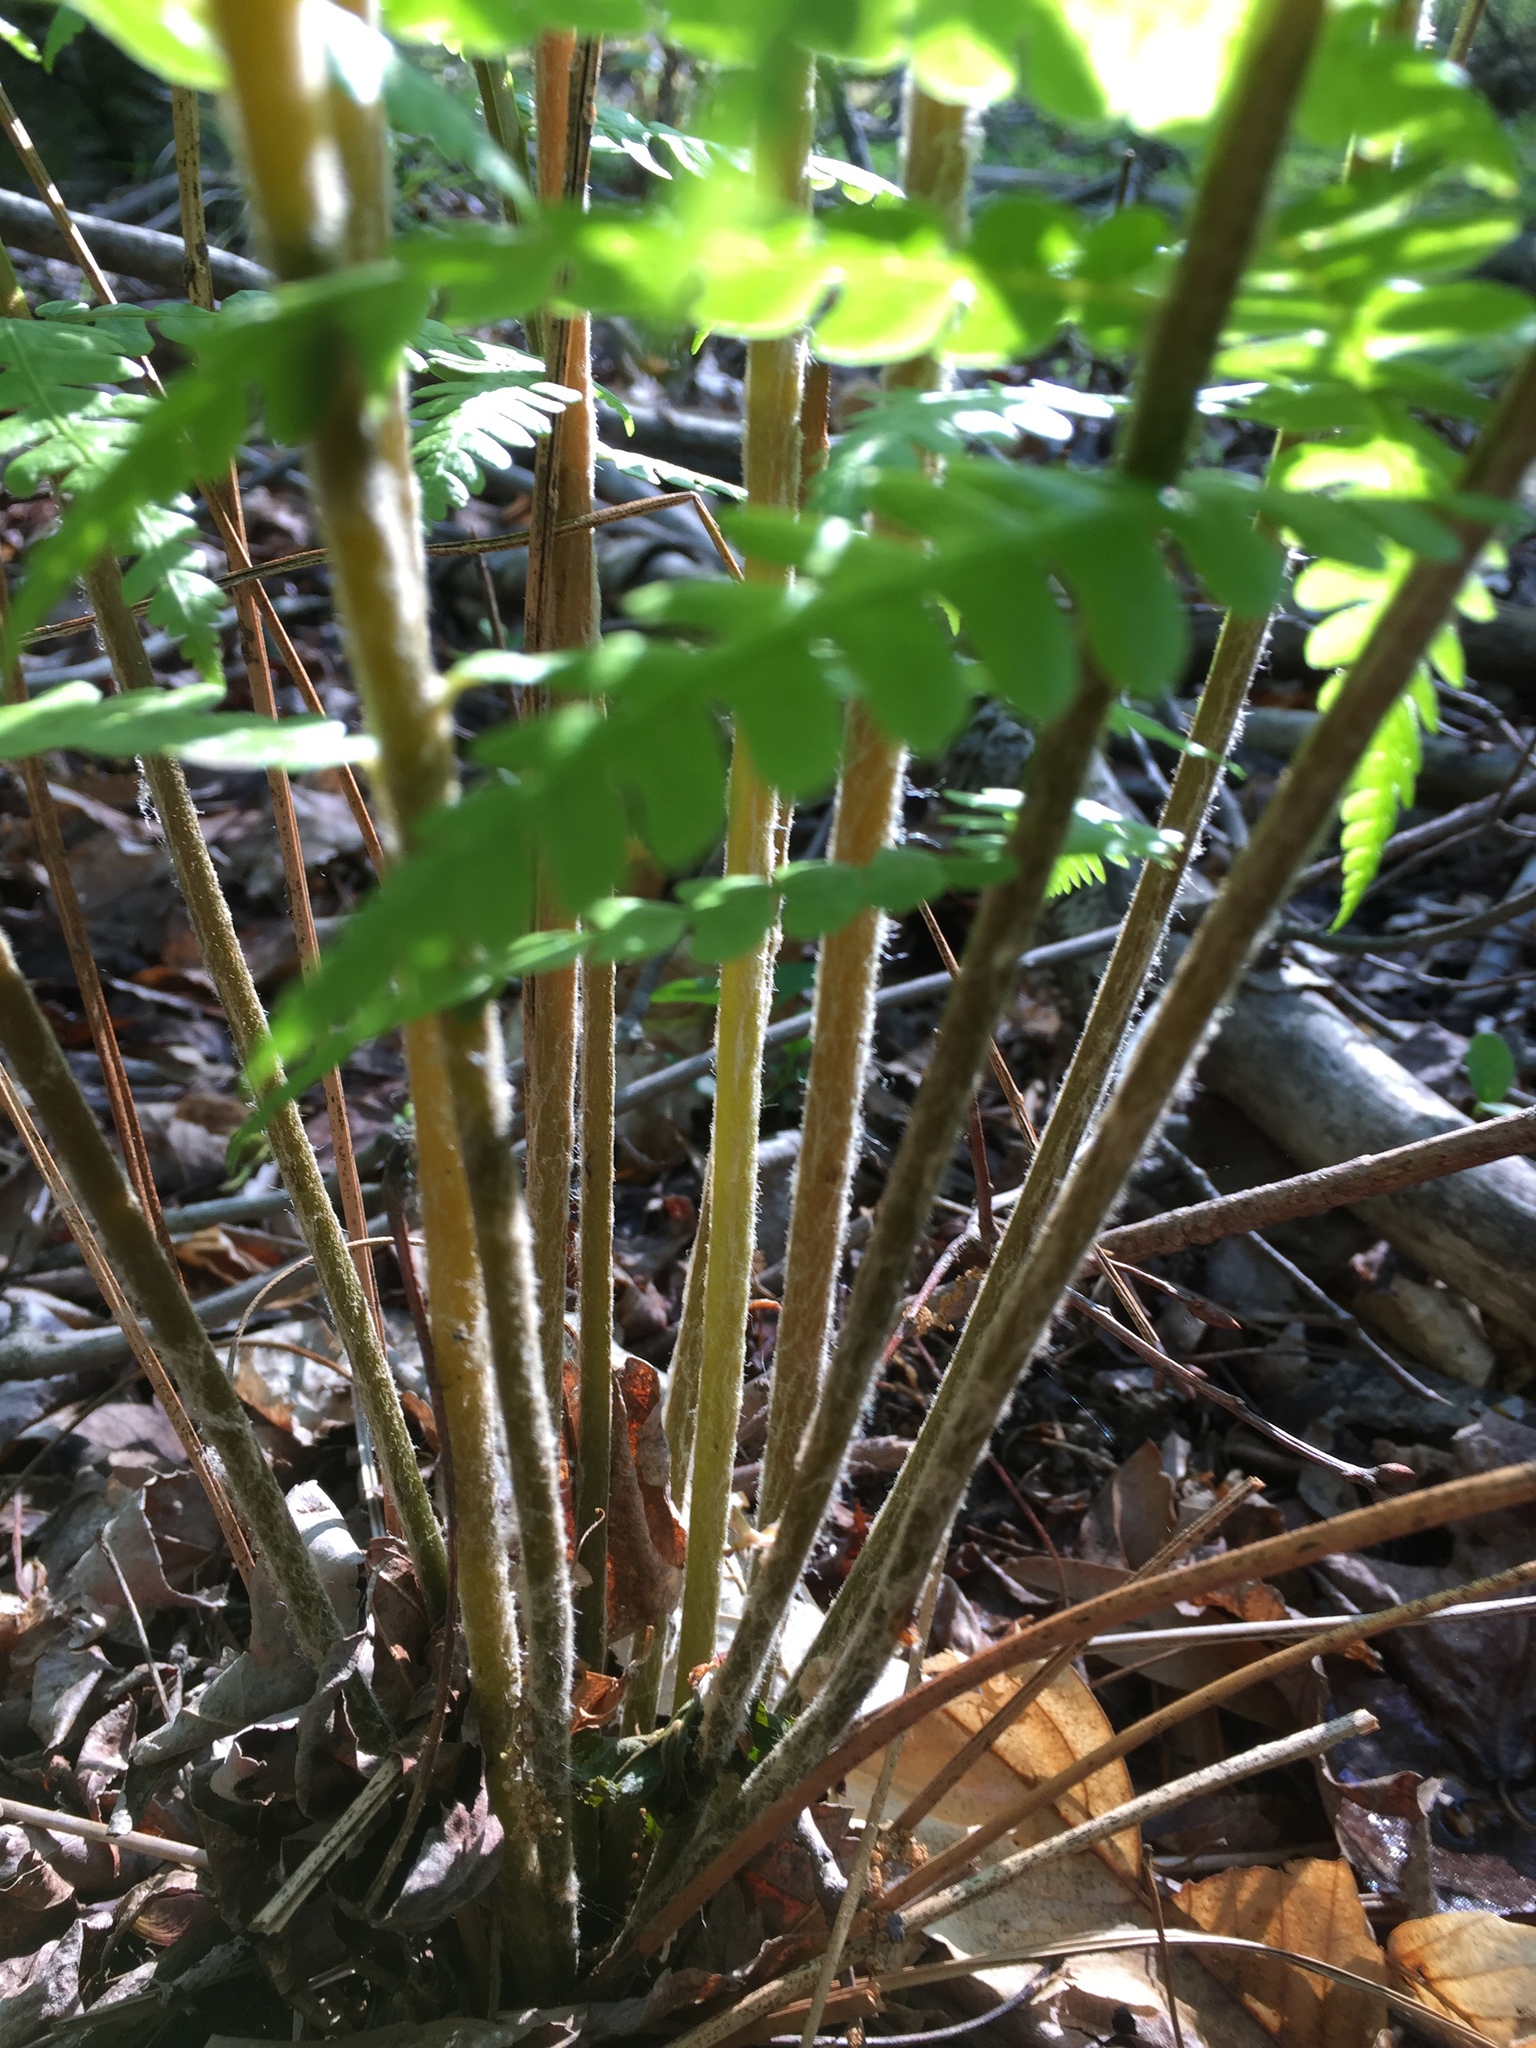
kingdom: Plantae
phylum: Tracheophyta
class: Polypodiopsida
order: Osmundales
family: Osmundaceae
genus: Osmundastrum
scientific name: Osmundastrum cinnamomeum
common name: Cinnamon fern
